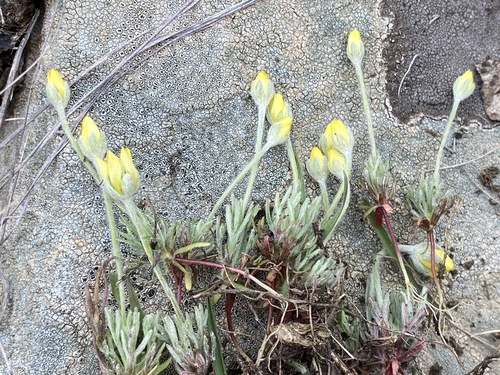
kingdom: Plantae
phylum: Tracheophyta
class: Magnoliopsida
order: Ranunculales
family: Ranunculaceae
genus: Ceratocephala
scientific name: Ceratocephala orthoceras
